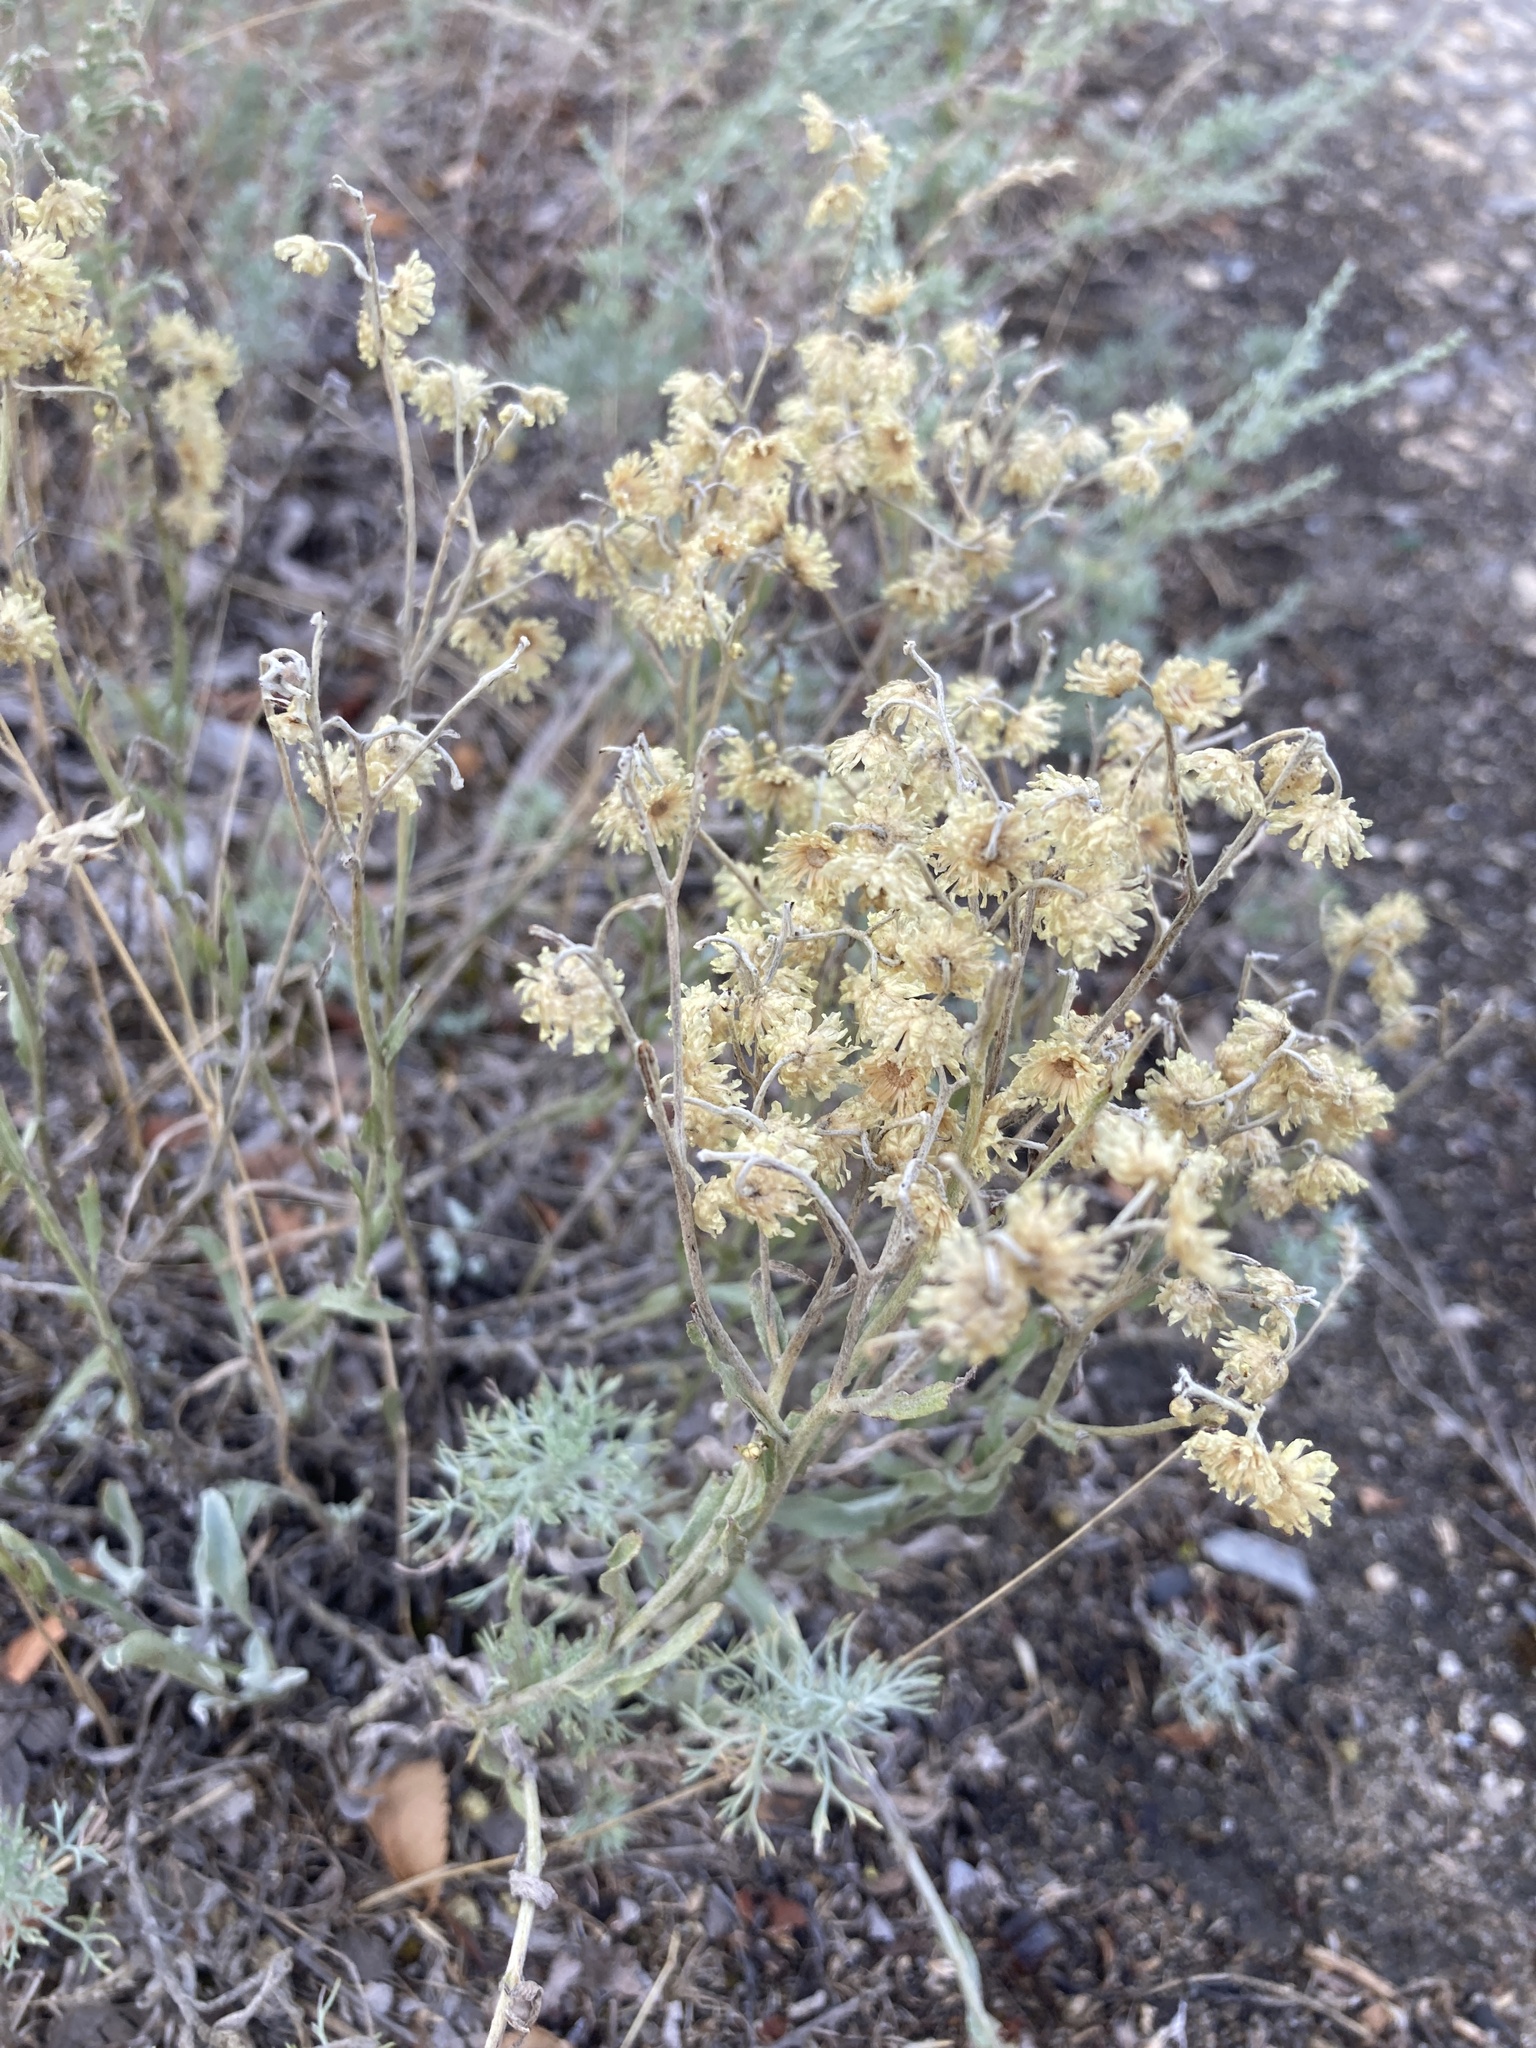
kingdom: Plantae
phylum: Tracheophyta
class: Magnoliopsida
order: Asterales
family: Asteraceae
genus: Helichrysum
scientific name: Helichrysum arenarium
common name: Strawflower
